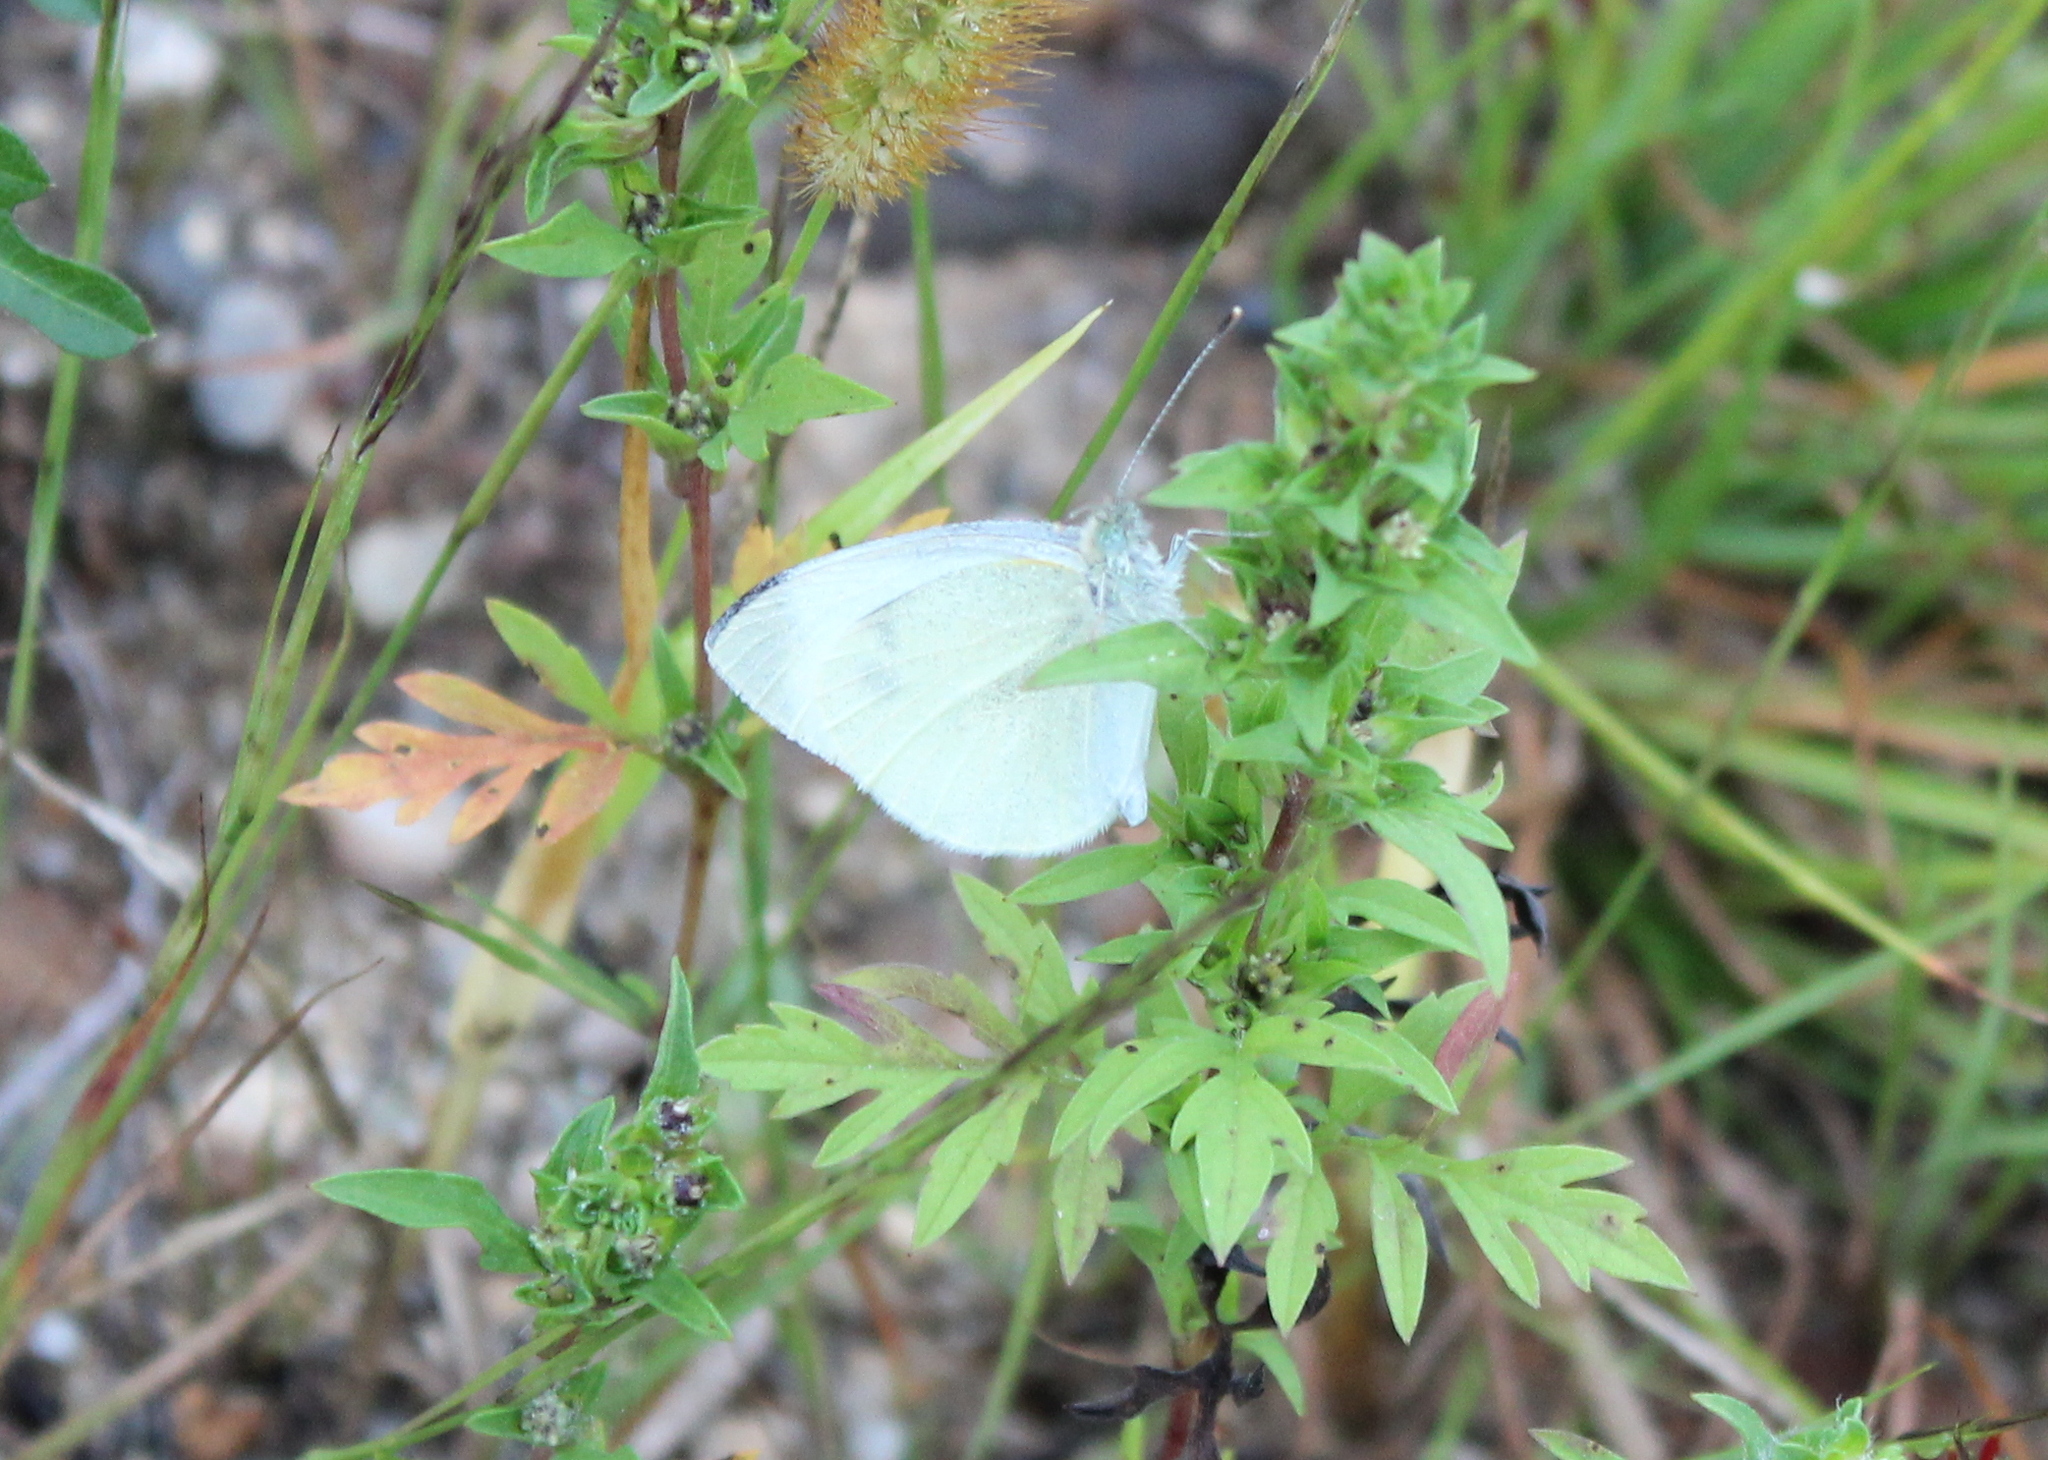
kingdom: Animalia
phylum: Arthropoda
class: Insecta
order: Lepidoptera
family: Pieridae
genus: Pieris
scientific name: Pieris rapae
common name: Small white
